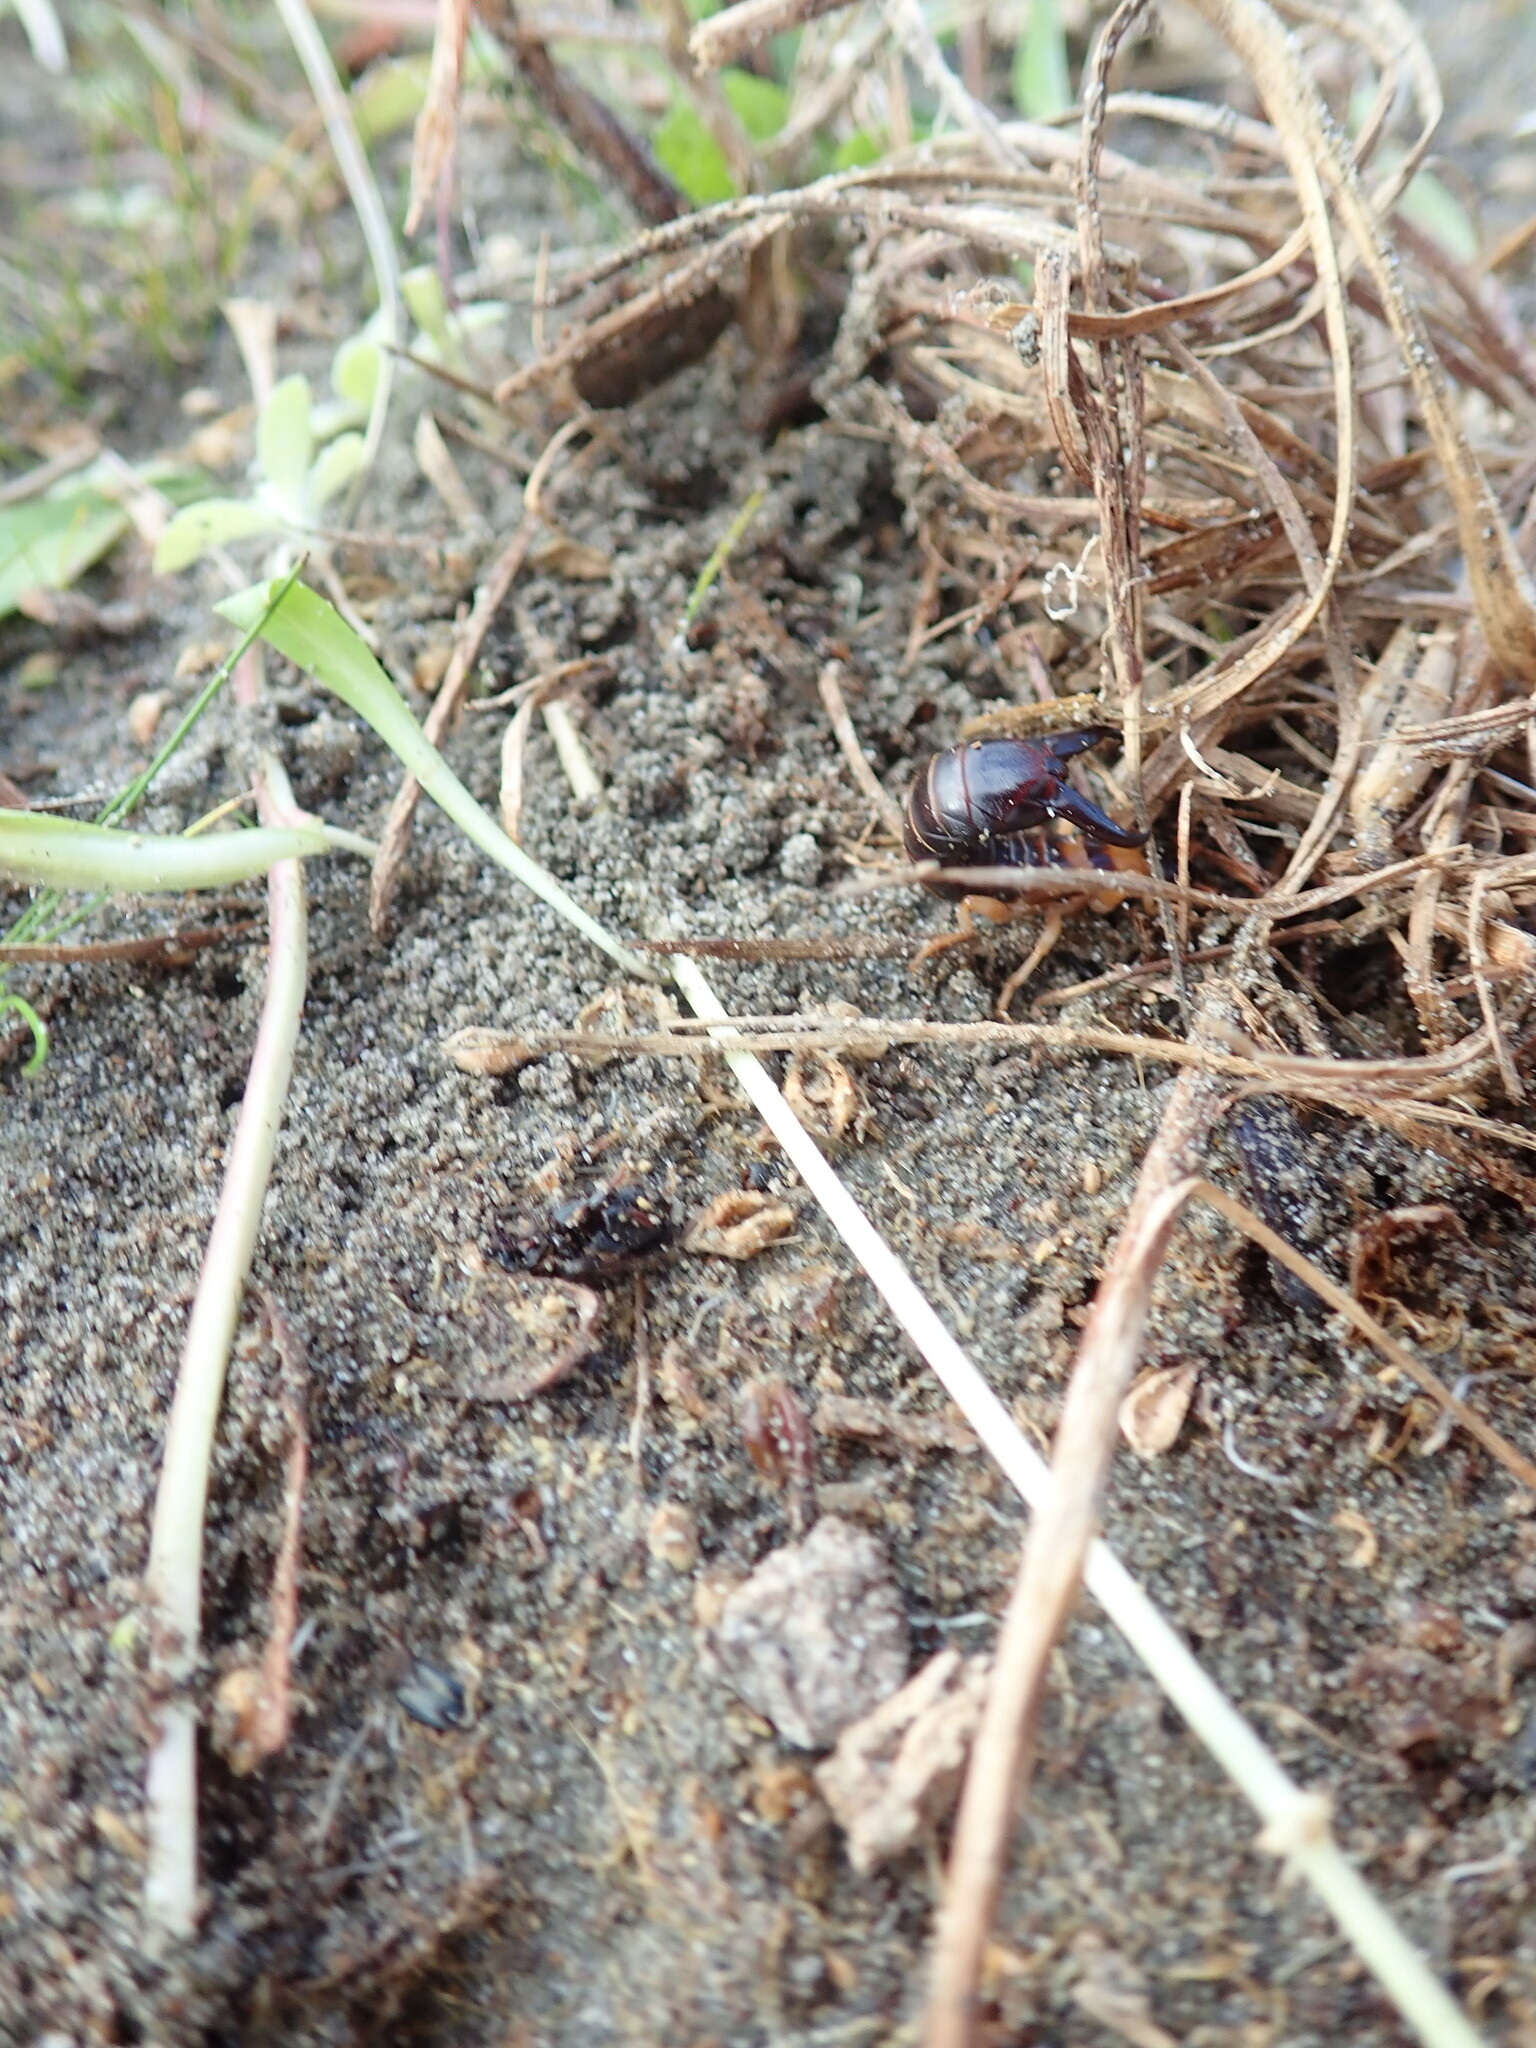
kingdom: Animalia
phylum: Arthropoda
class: Insecta
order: Dermaptera
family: Anisolabididae
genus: Anisolabis
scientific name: Anisolabis littorea
